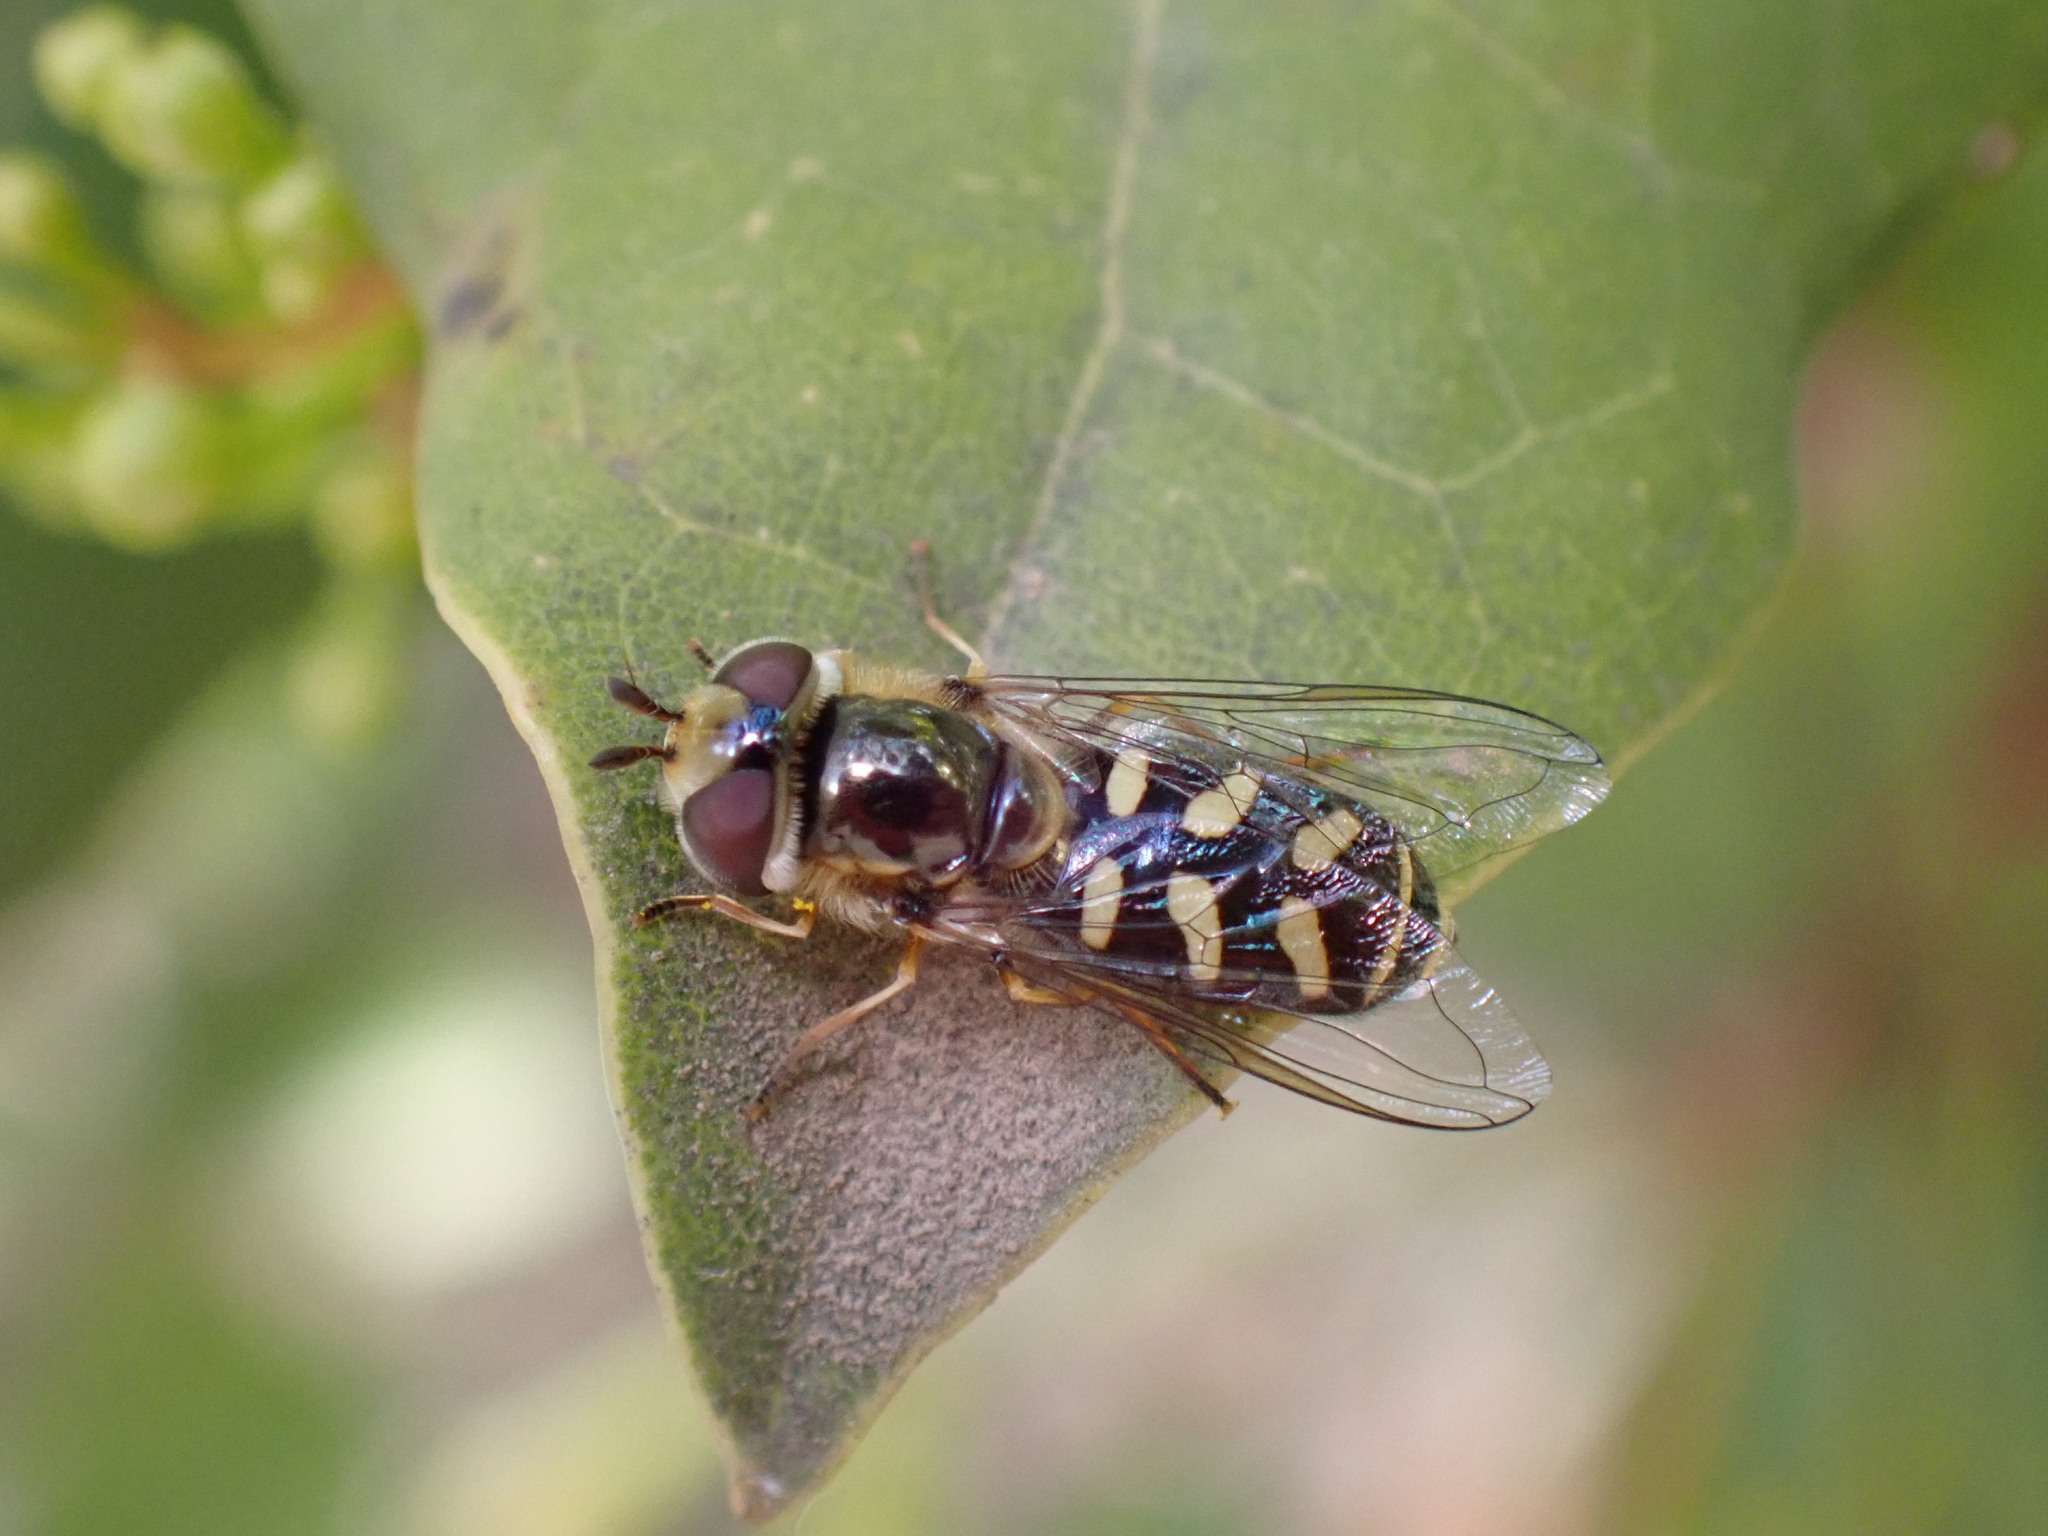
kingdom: Animalia
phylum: Arthropoda
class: Insecta
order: Diptera
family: Syrphidae
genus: Scaeva
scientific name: Scaeva albomaculata
